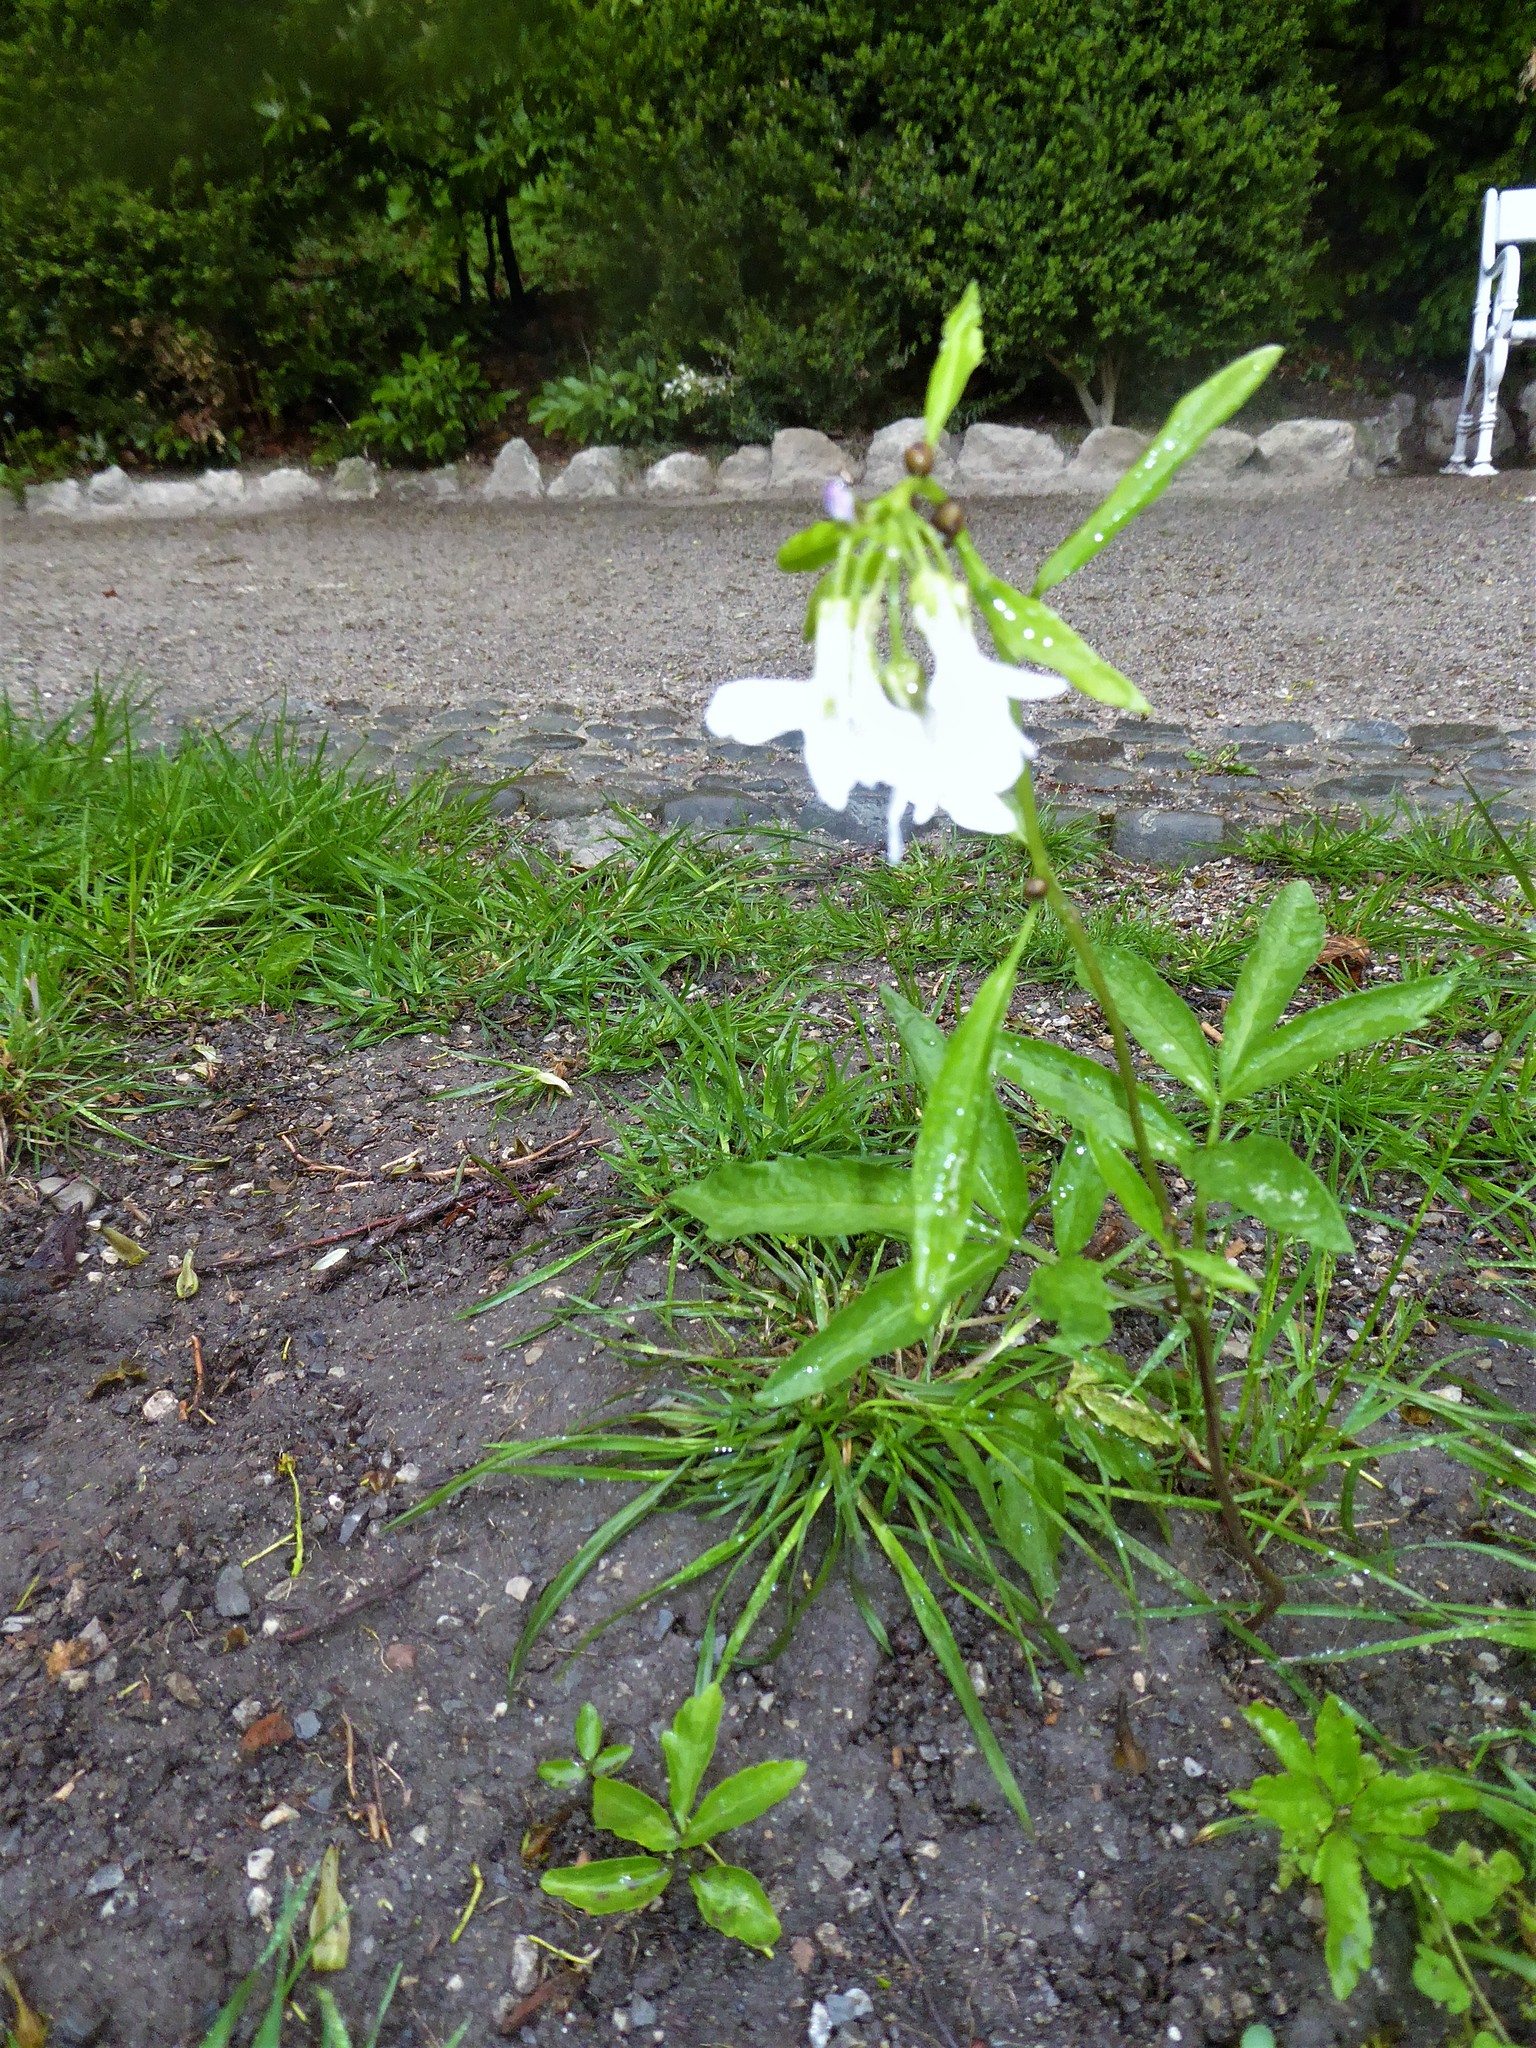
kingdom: Plantae
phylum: Tracheophyta
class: Magnoliopsida
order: Brassicales
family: Brassicaceae
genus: Cardamine
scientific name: Cardamine bulbifera
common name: Coralroot bittercress
